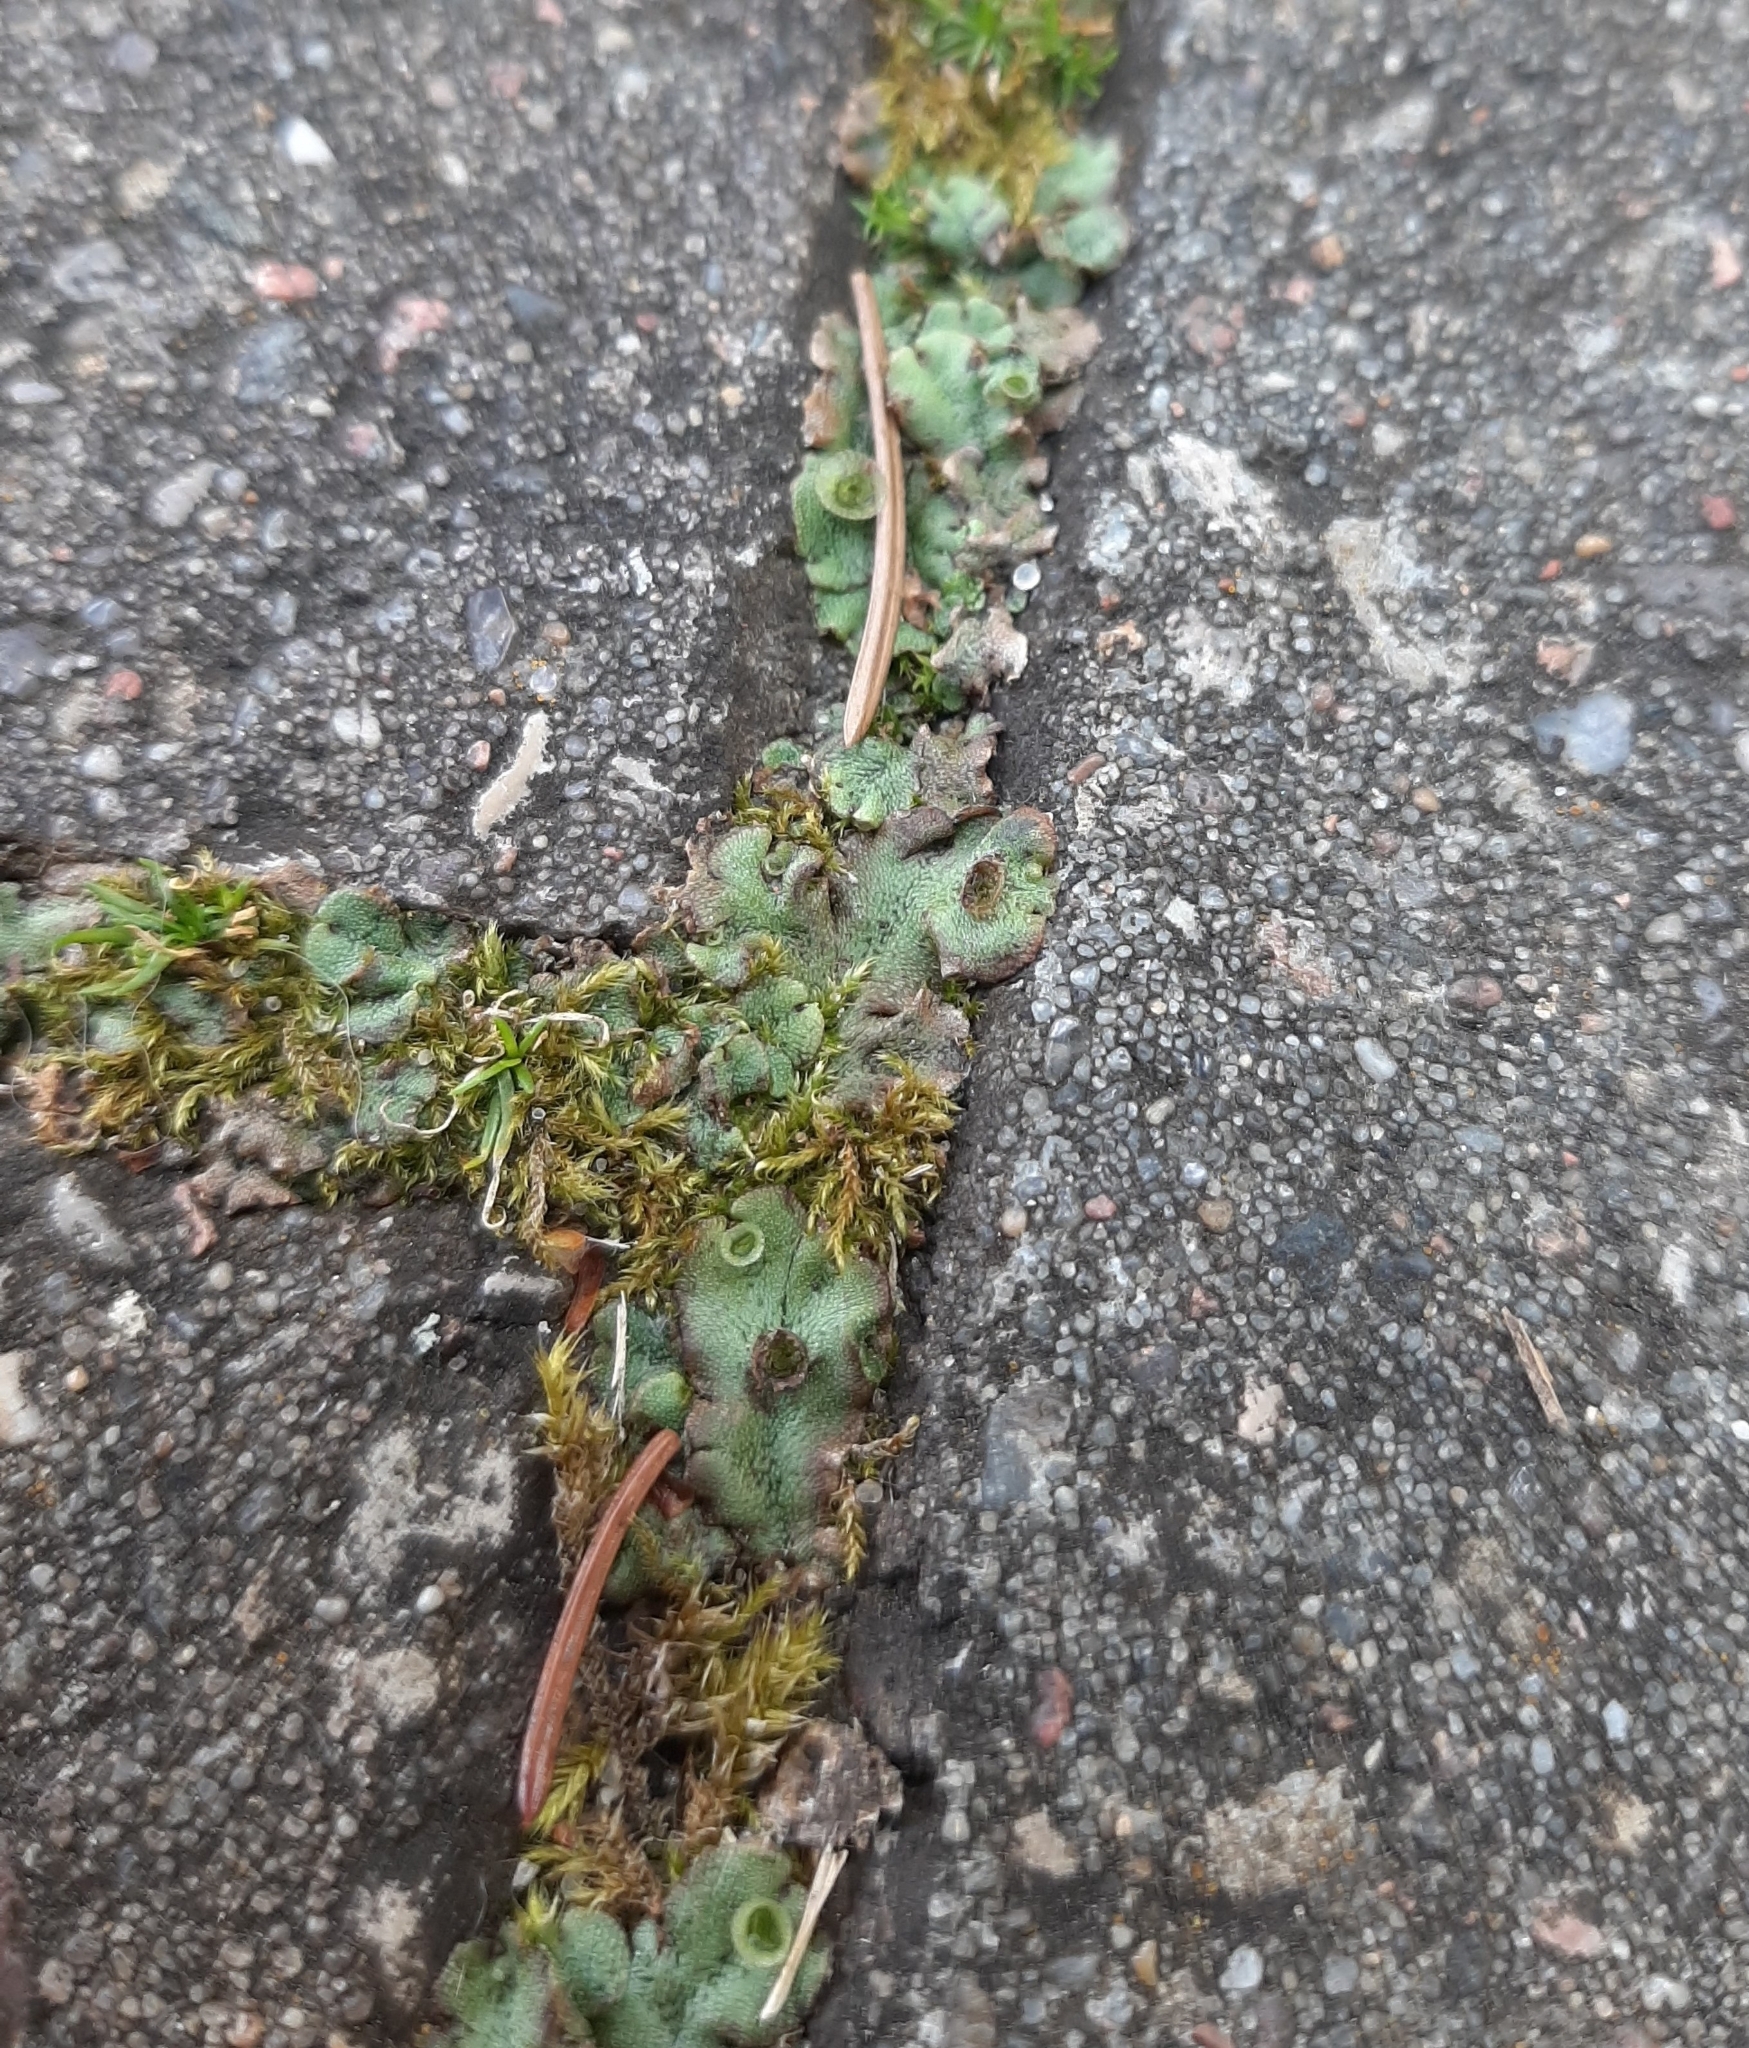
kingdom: Plantae
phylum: Marchantiophyta
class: Marchantiopsida
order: Marchantiales
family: Marchantiaceae
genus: Marchantia
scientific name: Marchantia polymorpha
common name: Common liverwort
